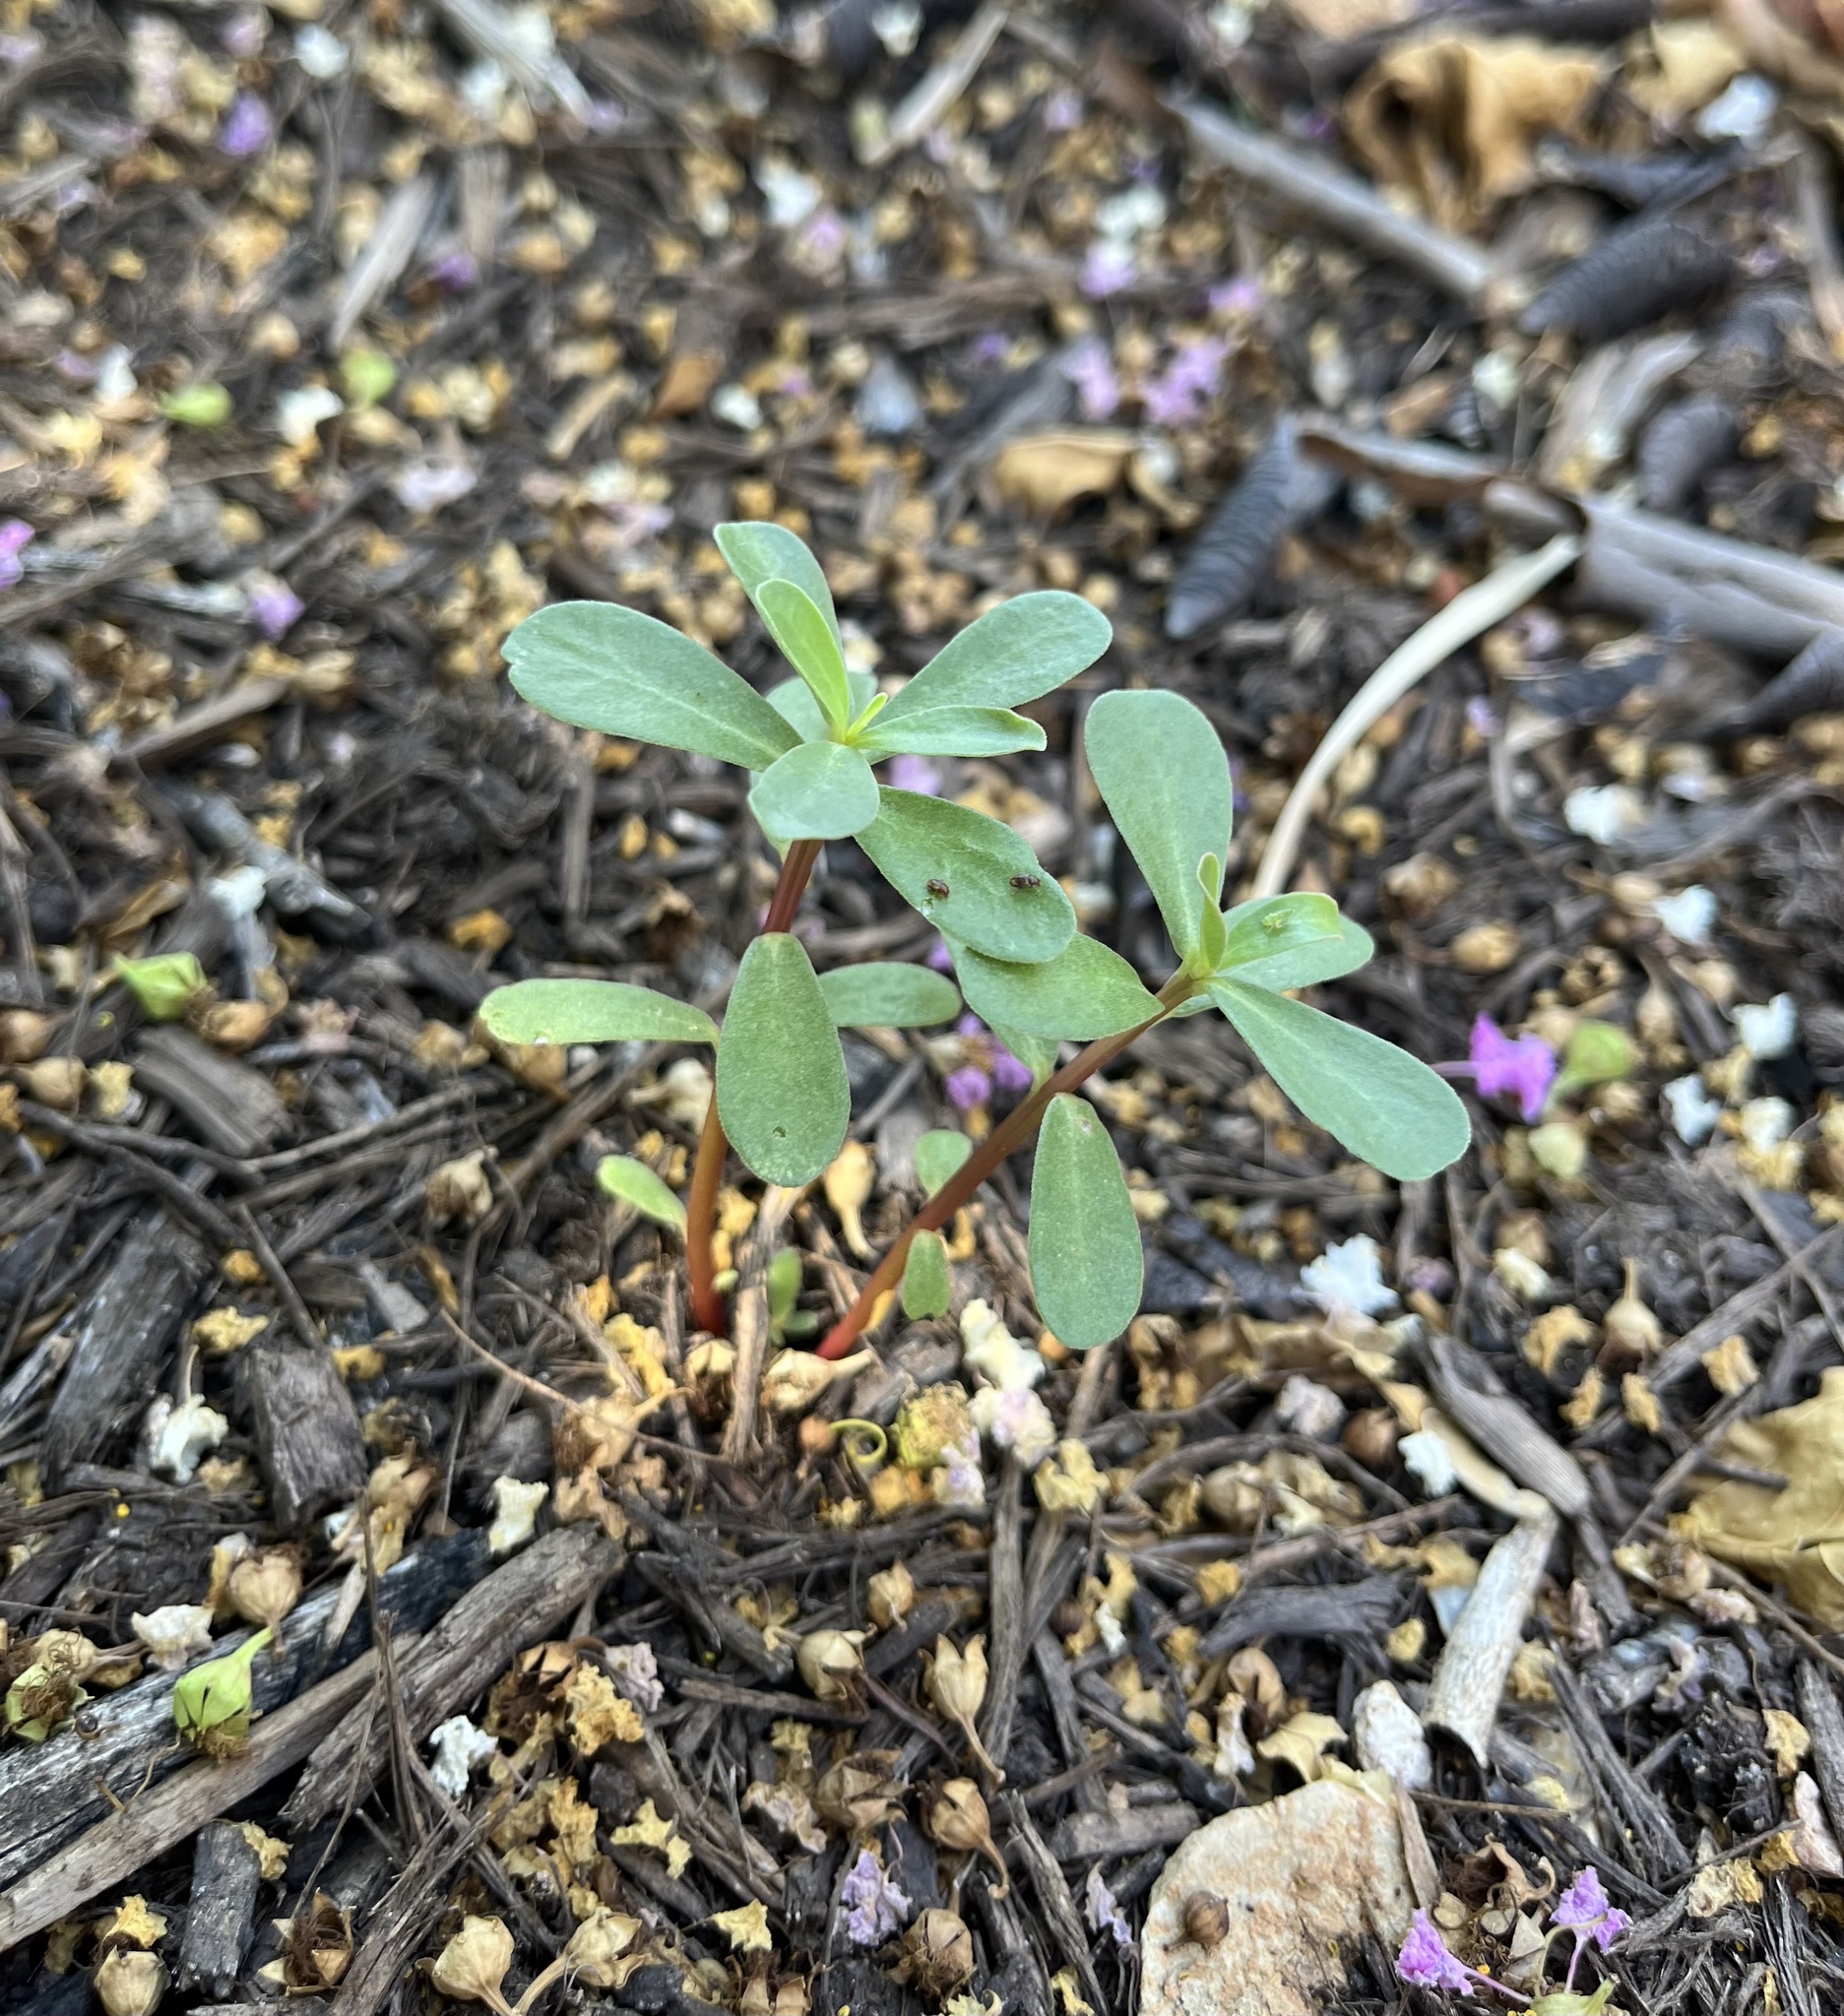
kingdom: Plantae
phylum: Tracheophyta
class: Magnoliopsida
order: Caryophyllales
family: Portulacaceae
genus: Portulaca
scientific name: Portulaca oleracea
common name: Common purslane
